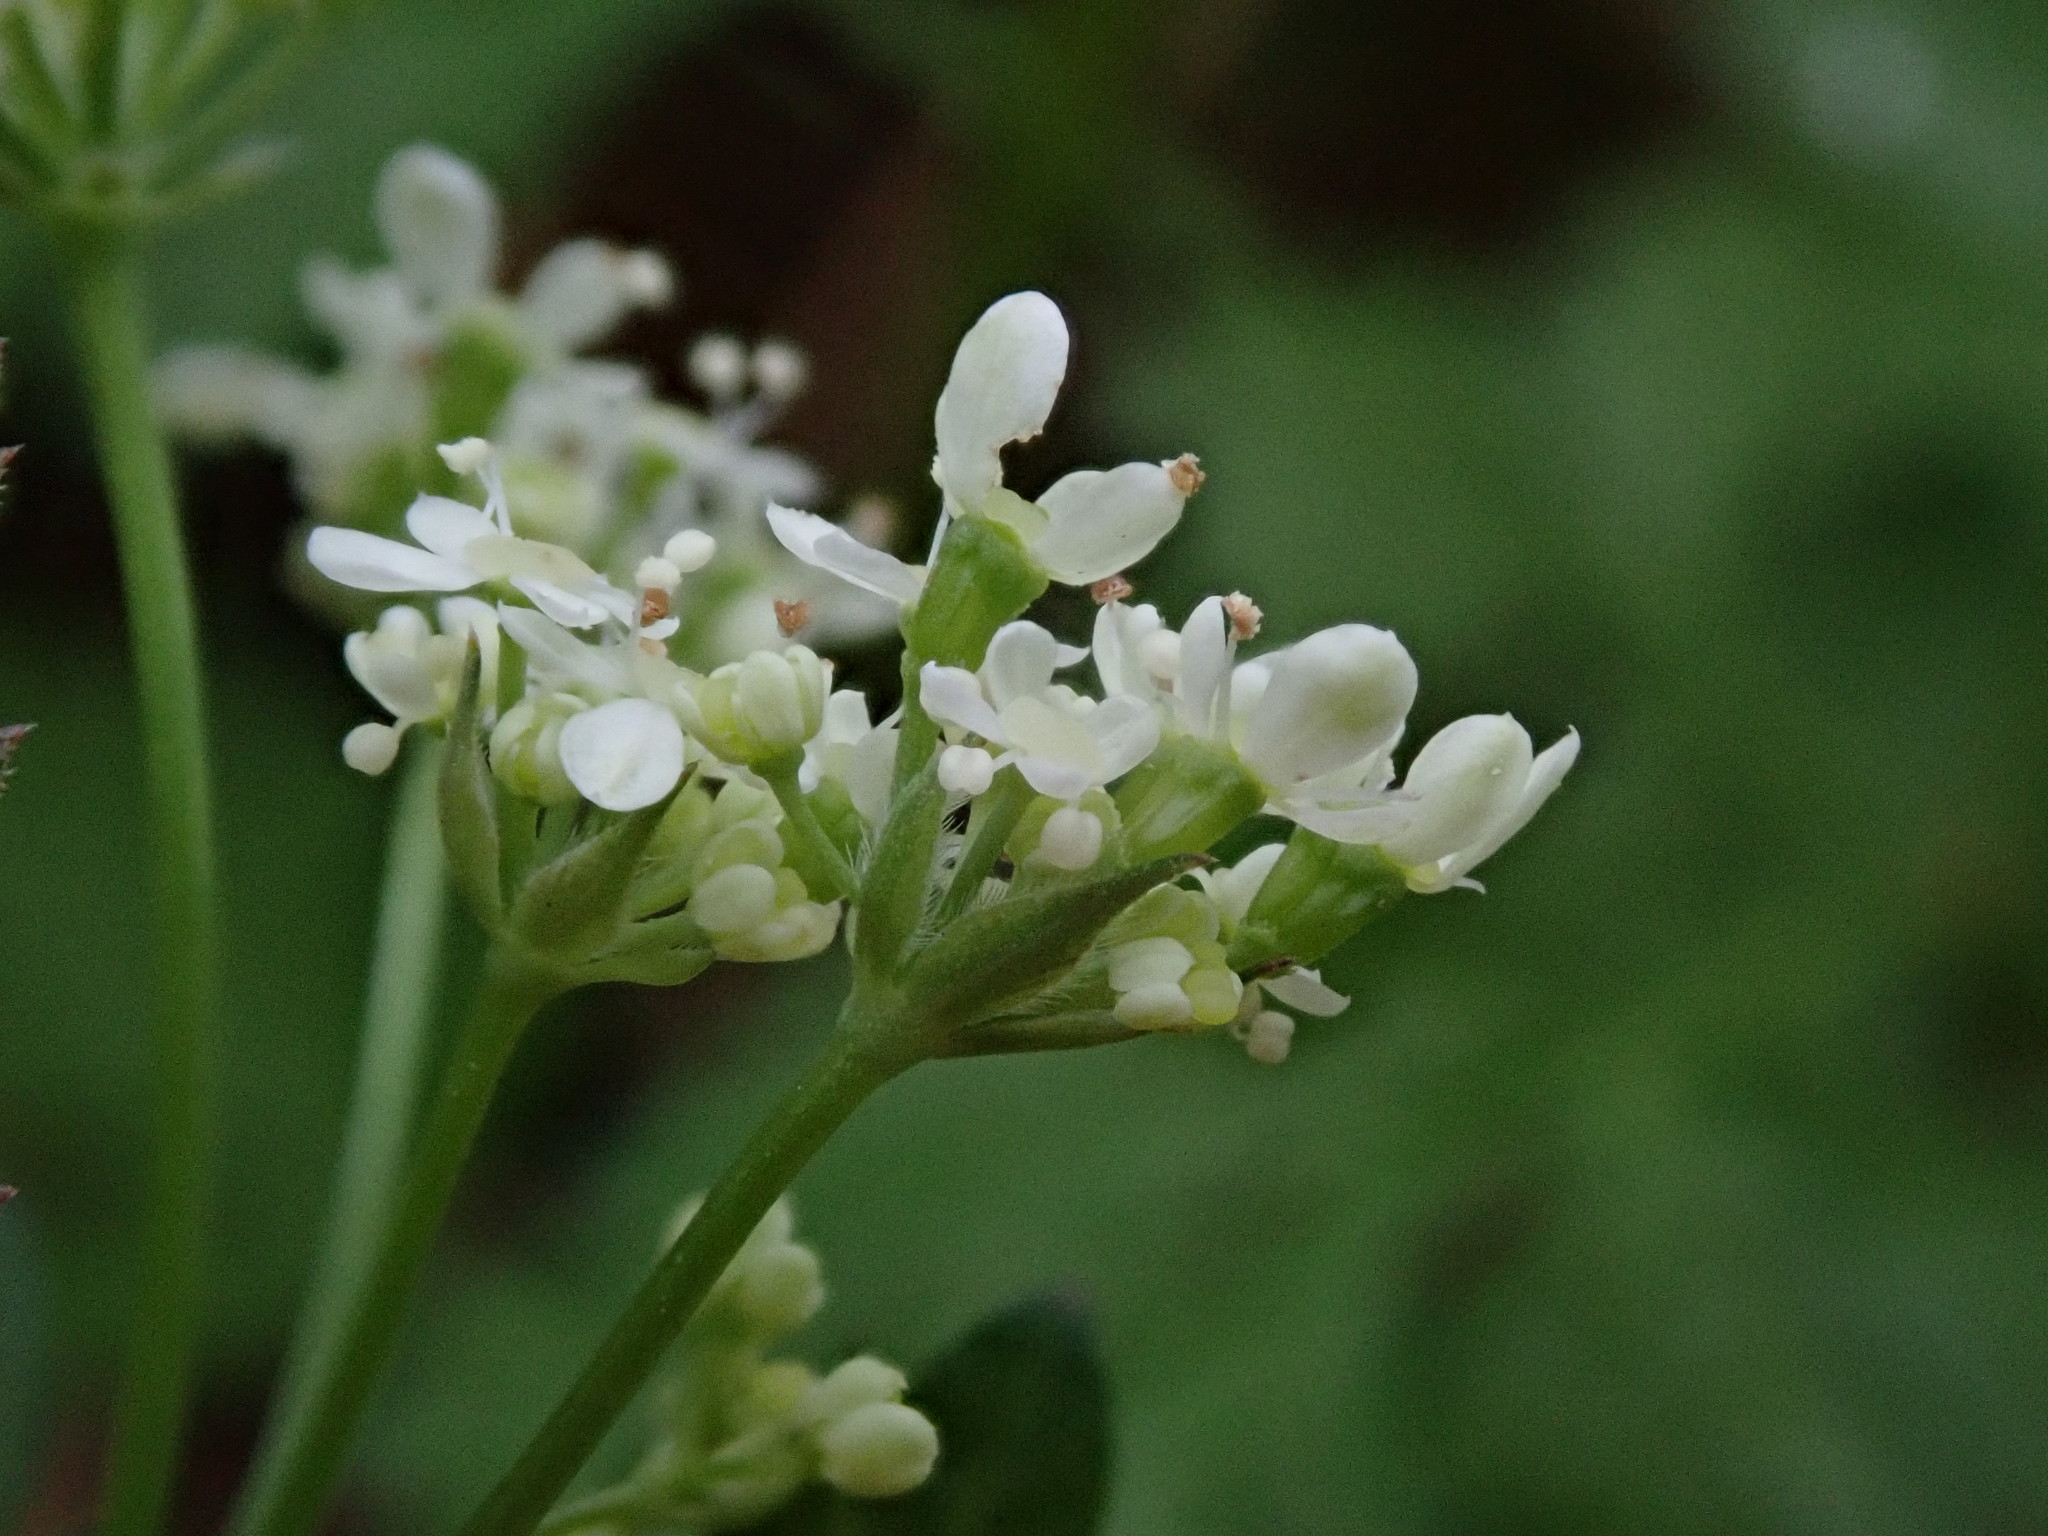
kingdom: Plantae
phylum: Tracheophyta
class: Magnoliopsida
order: Apiales
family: Apiaceae
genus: Anthriscus
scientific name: Anthriscus sylvestris
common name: Cow parsley
